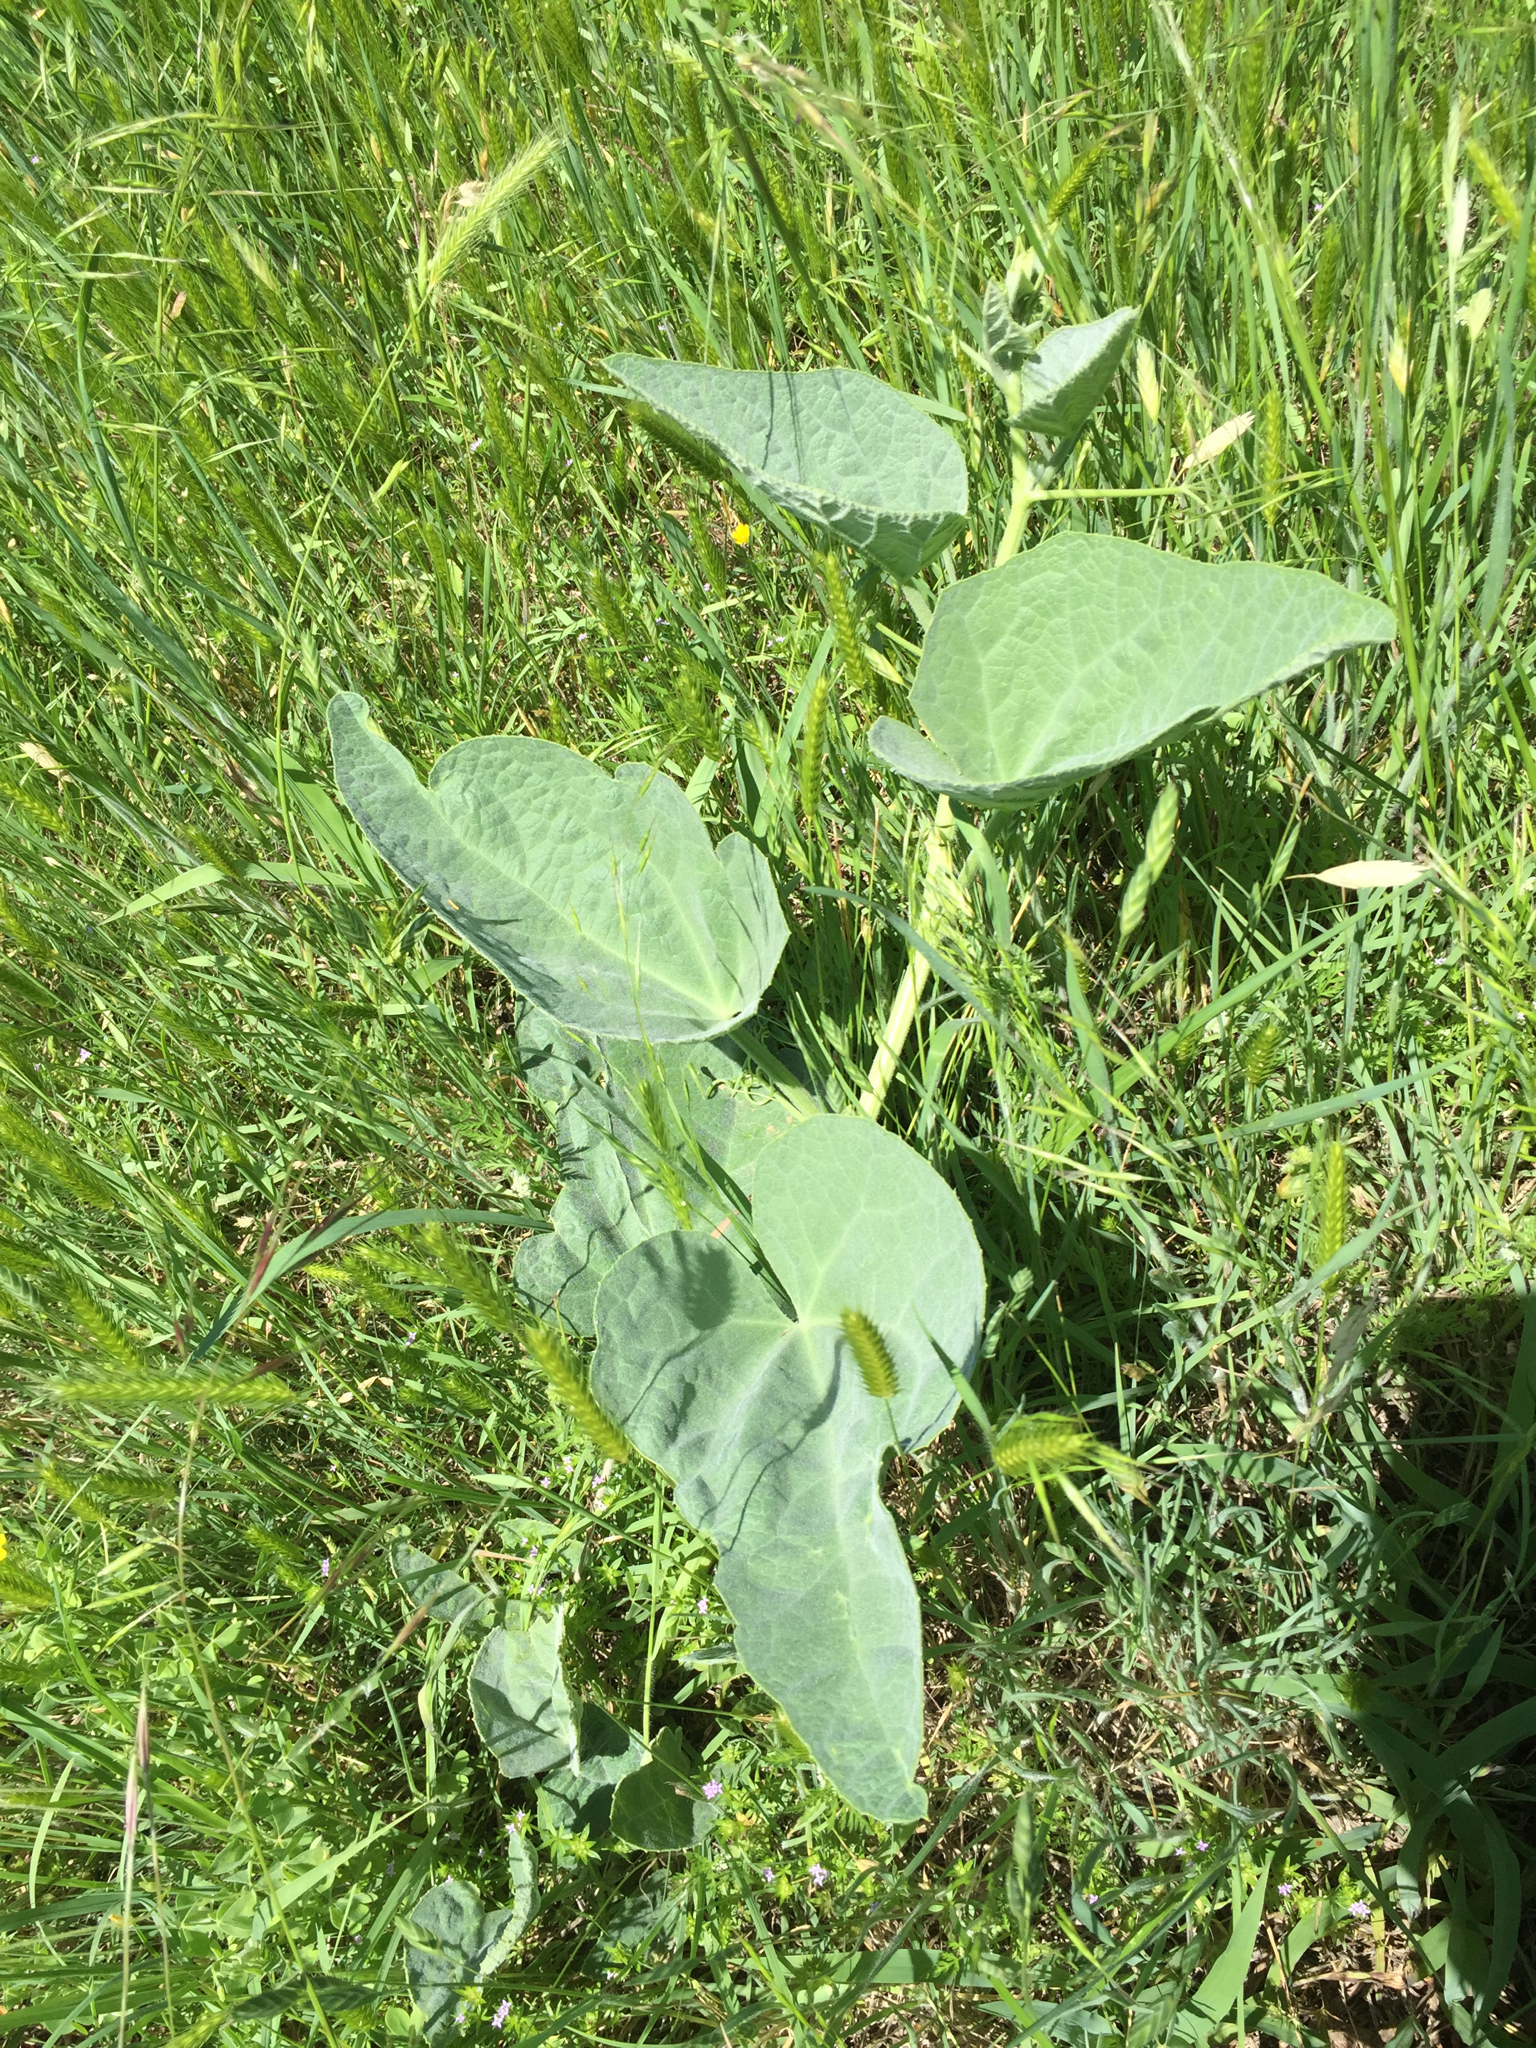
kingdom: Plantae
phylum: Tracheophyta
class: Magnoliopsida
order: Cucurbitales
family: Cucurbitaceae
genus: Cucurbita
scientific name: Cucurbita foetidissima
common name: Buffalo gourd
